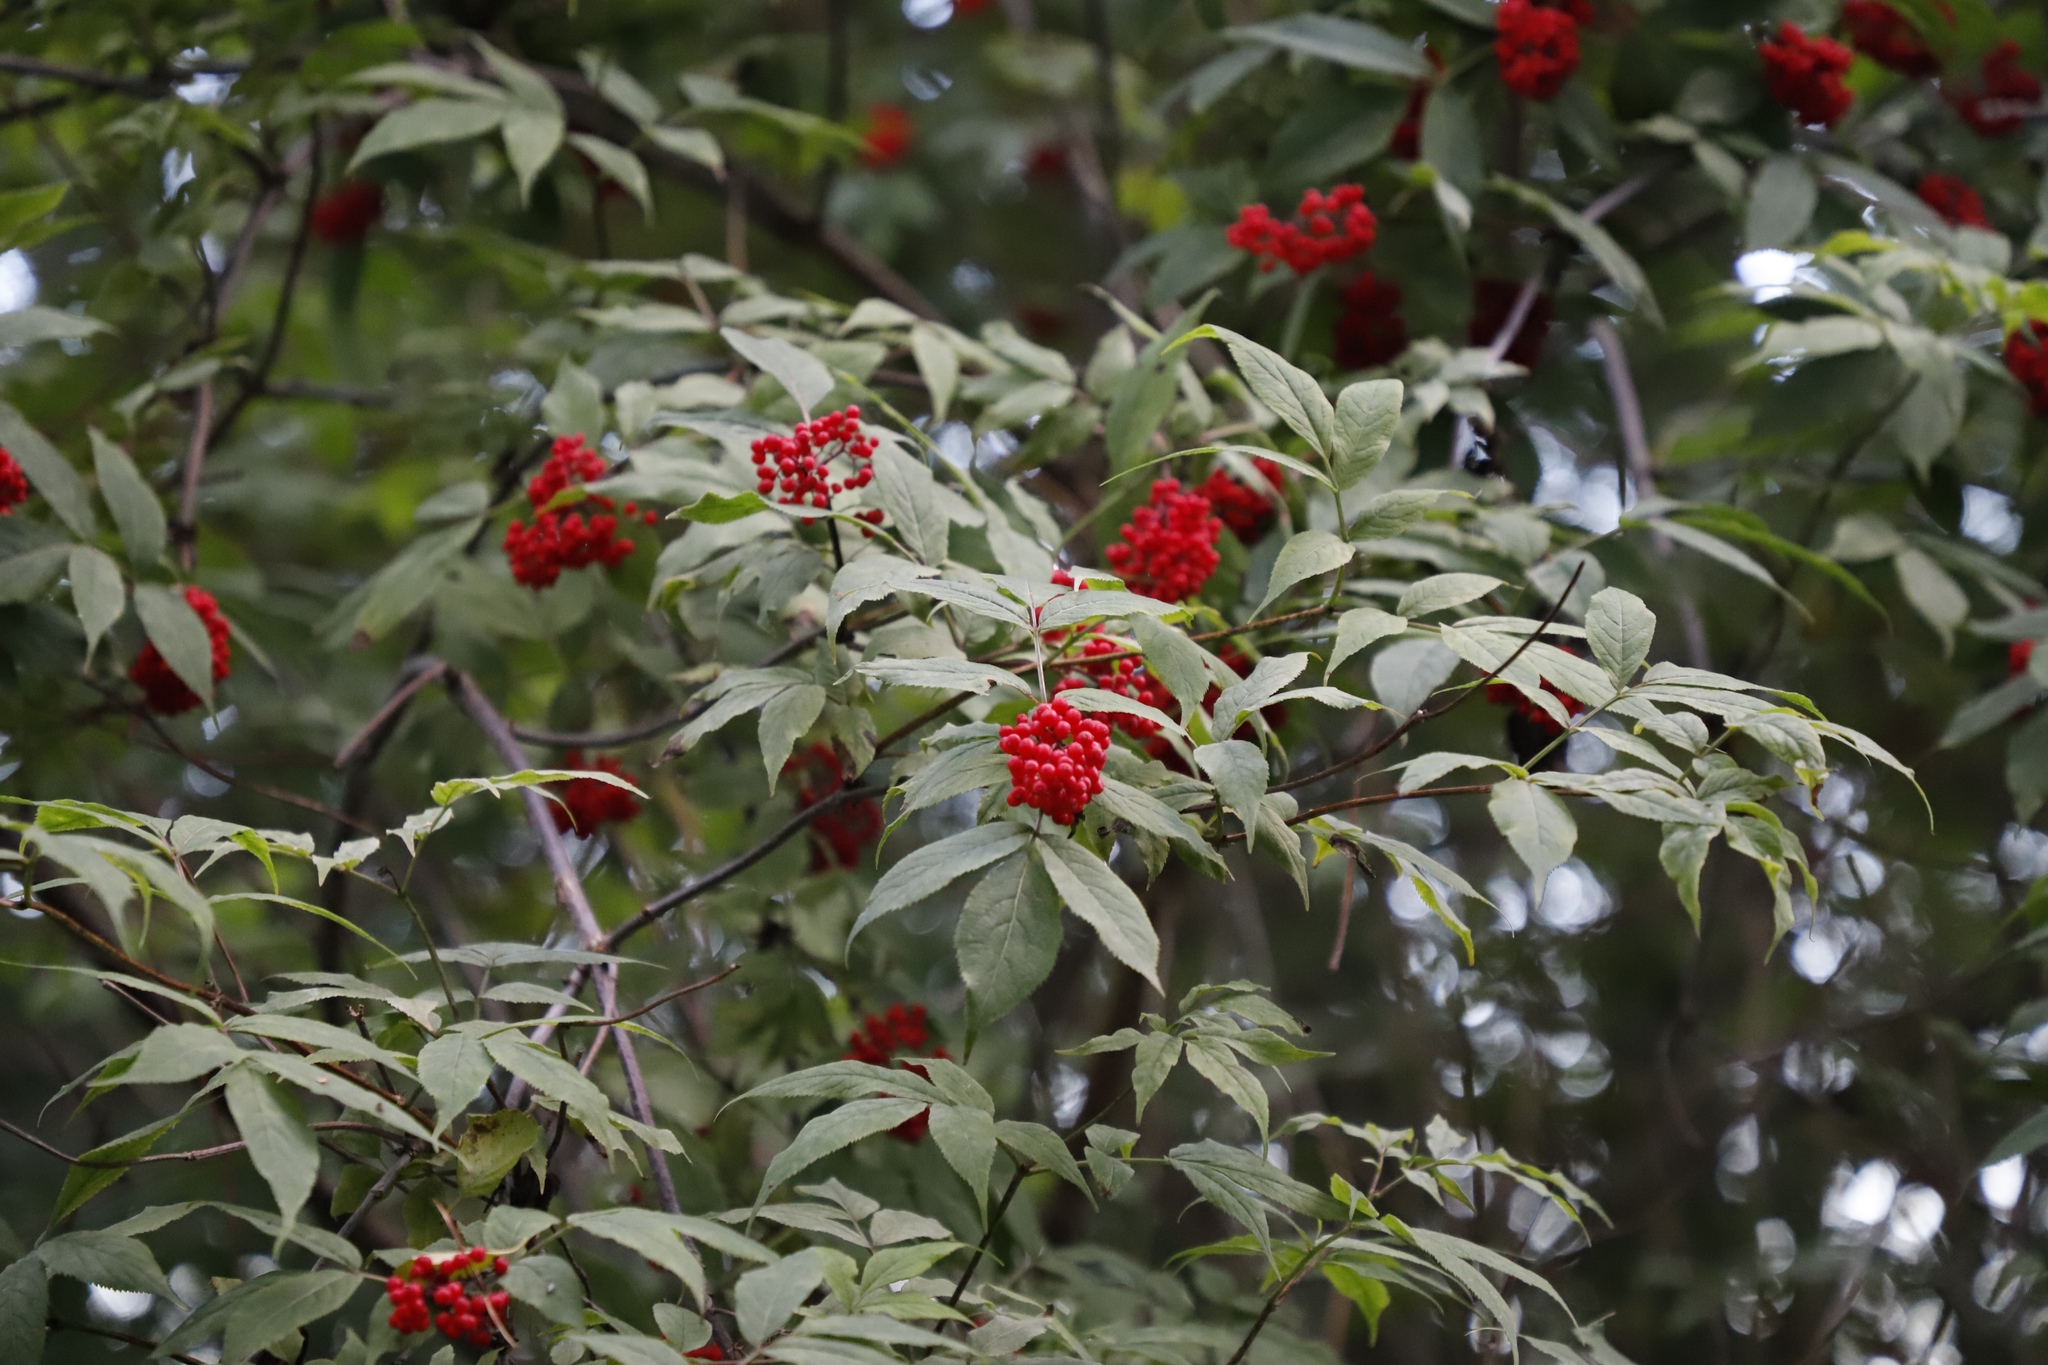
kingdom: Plantae
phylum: Tracheophyta
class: Magnoliopsida
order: Dipsacales
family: Viburnaceae
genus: Sambucus
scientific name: Sambucus racemosa
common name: Red-berried elder
